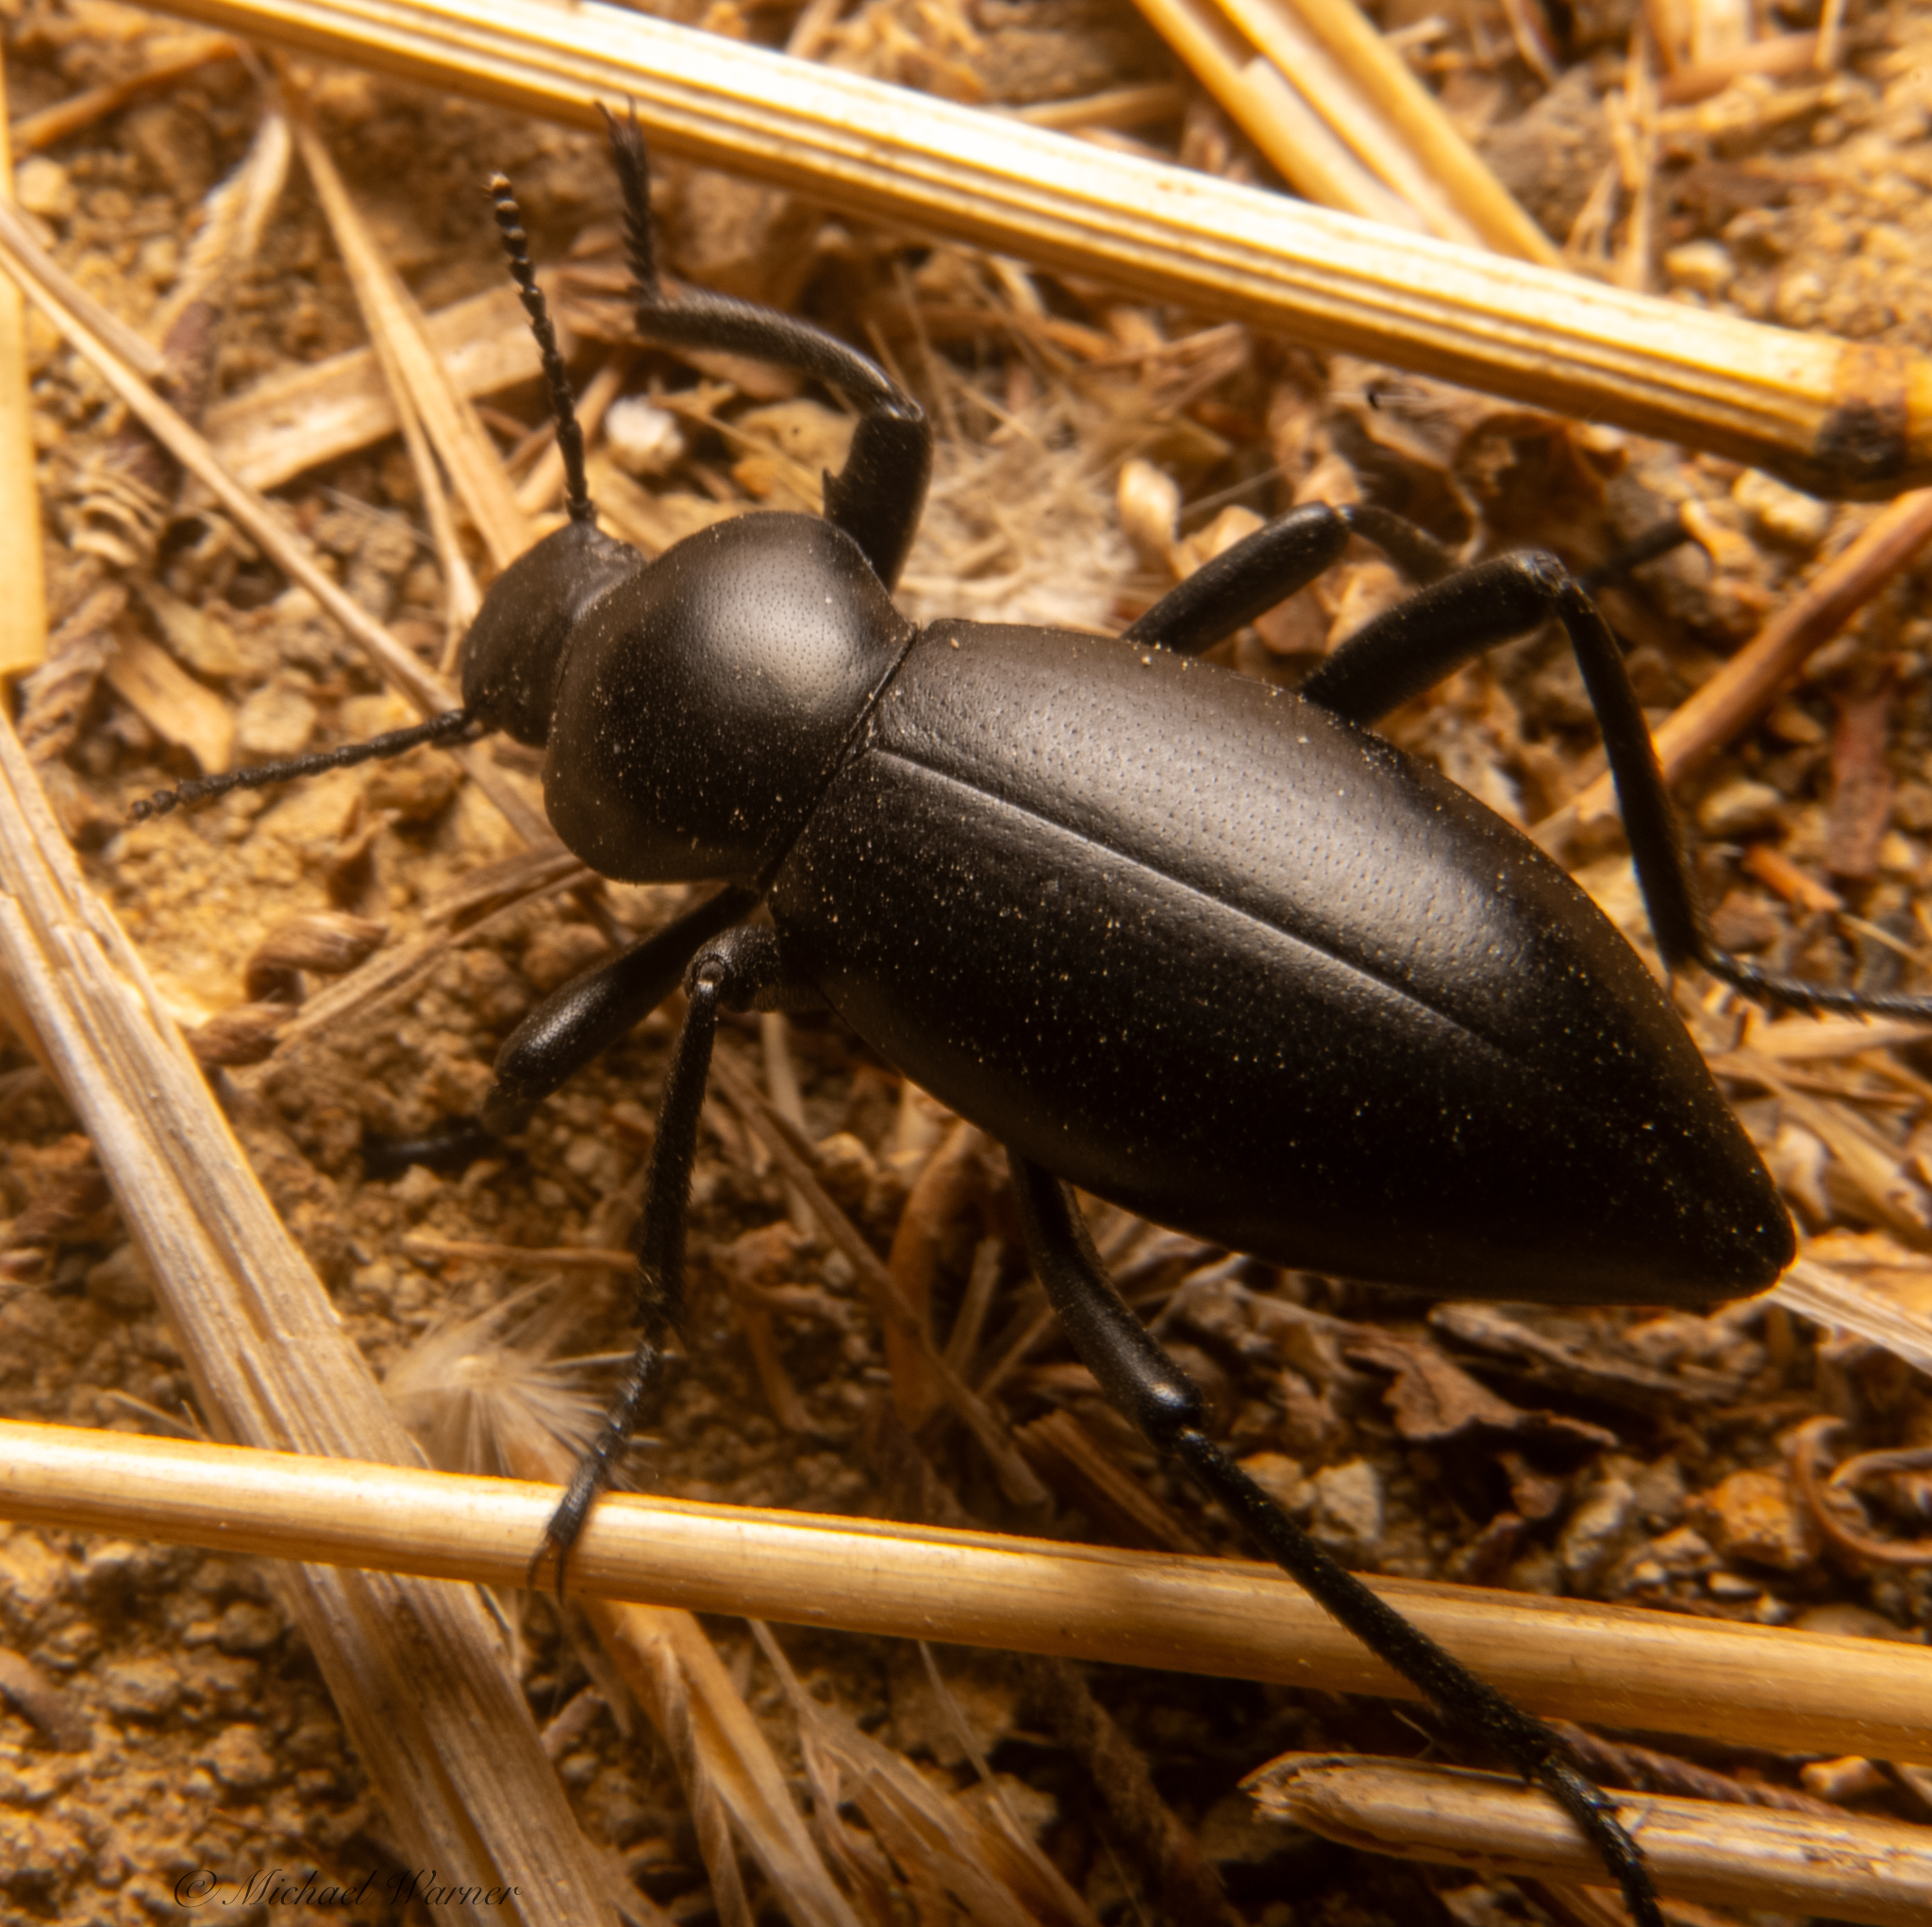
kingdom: Animalia
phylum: Arthropoda
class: Insecta
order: Coleoptera
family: Tenebrionidae
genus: Eleodes
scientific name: Eleodes dentipes
